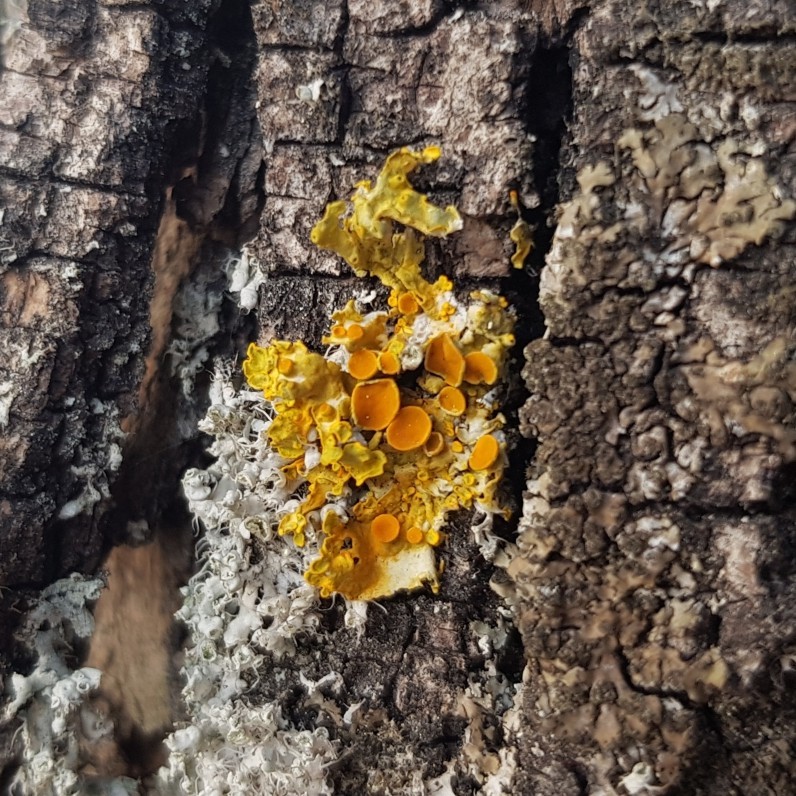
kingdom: Fungi
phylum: Ascomycota
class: Lecanoromycetes
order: Teloschistales
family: Teloschistaceae
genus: Xanthoria
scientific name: Xanthoria parietina
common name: Common orange lichen
